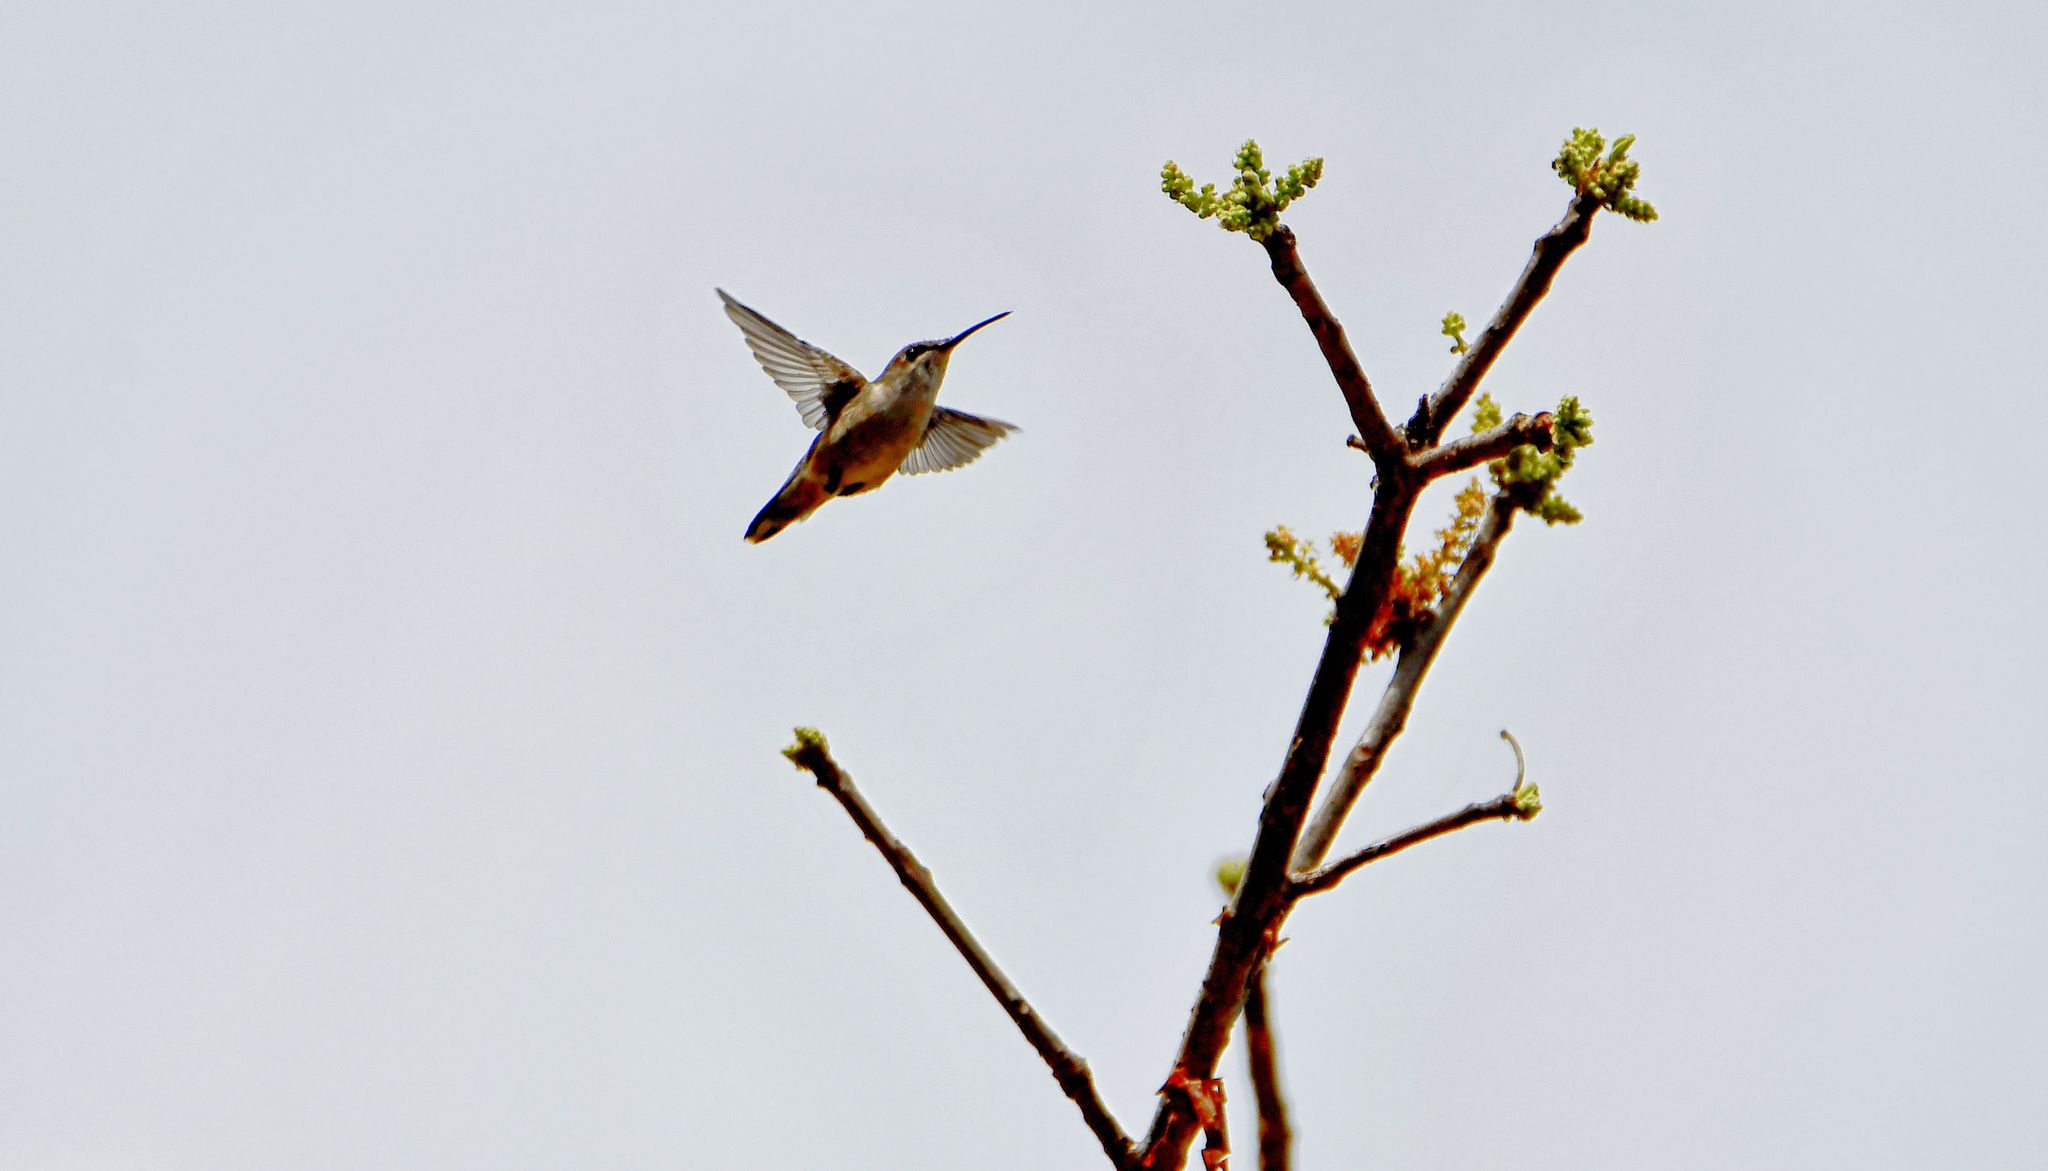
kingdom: Animalia
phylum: Chordata
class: Aves
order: Apodiformes
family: Trochilidae
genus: Selasphorus
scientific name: Selasphorus rufus
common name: Rufous hummingbird
